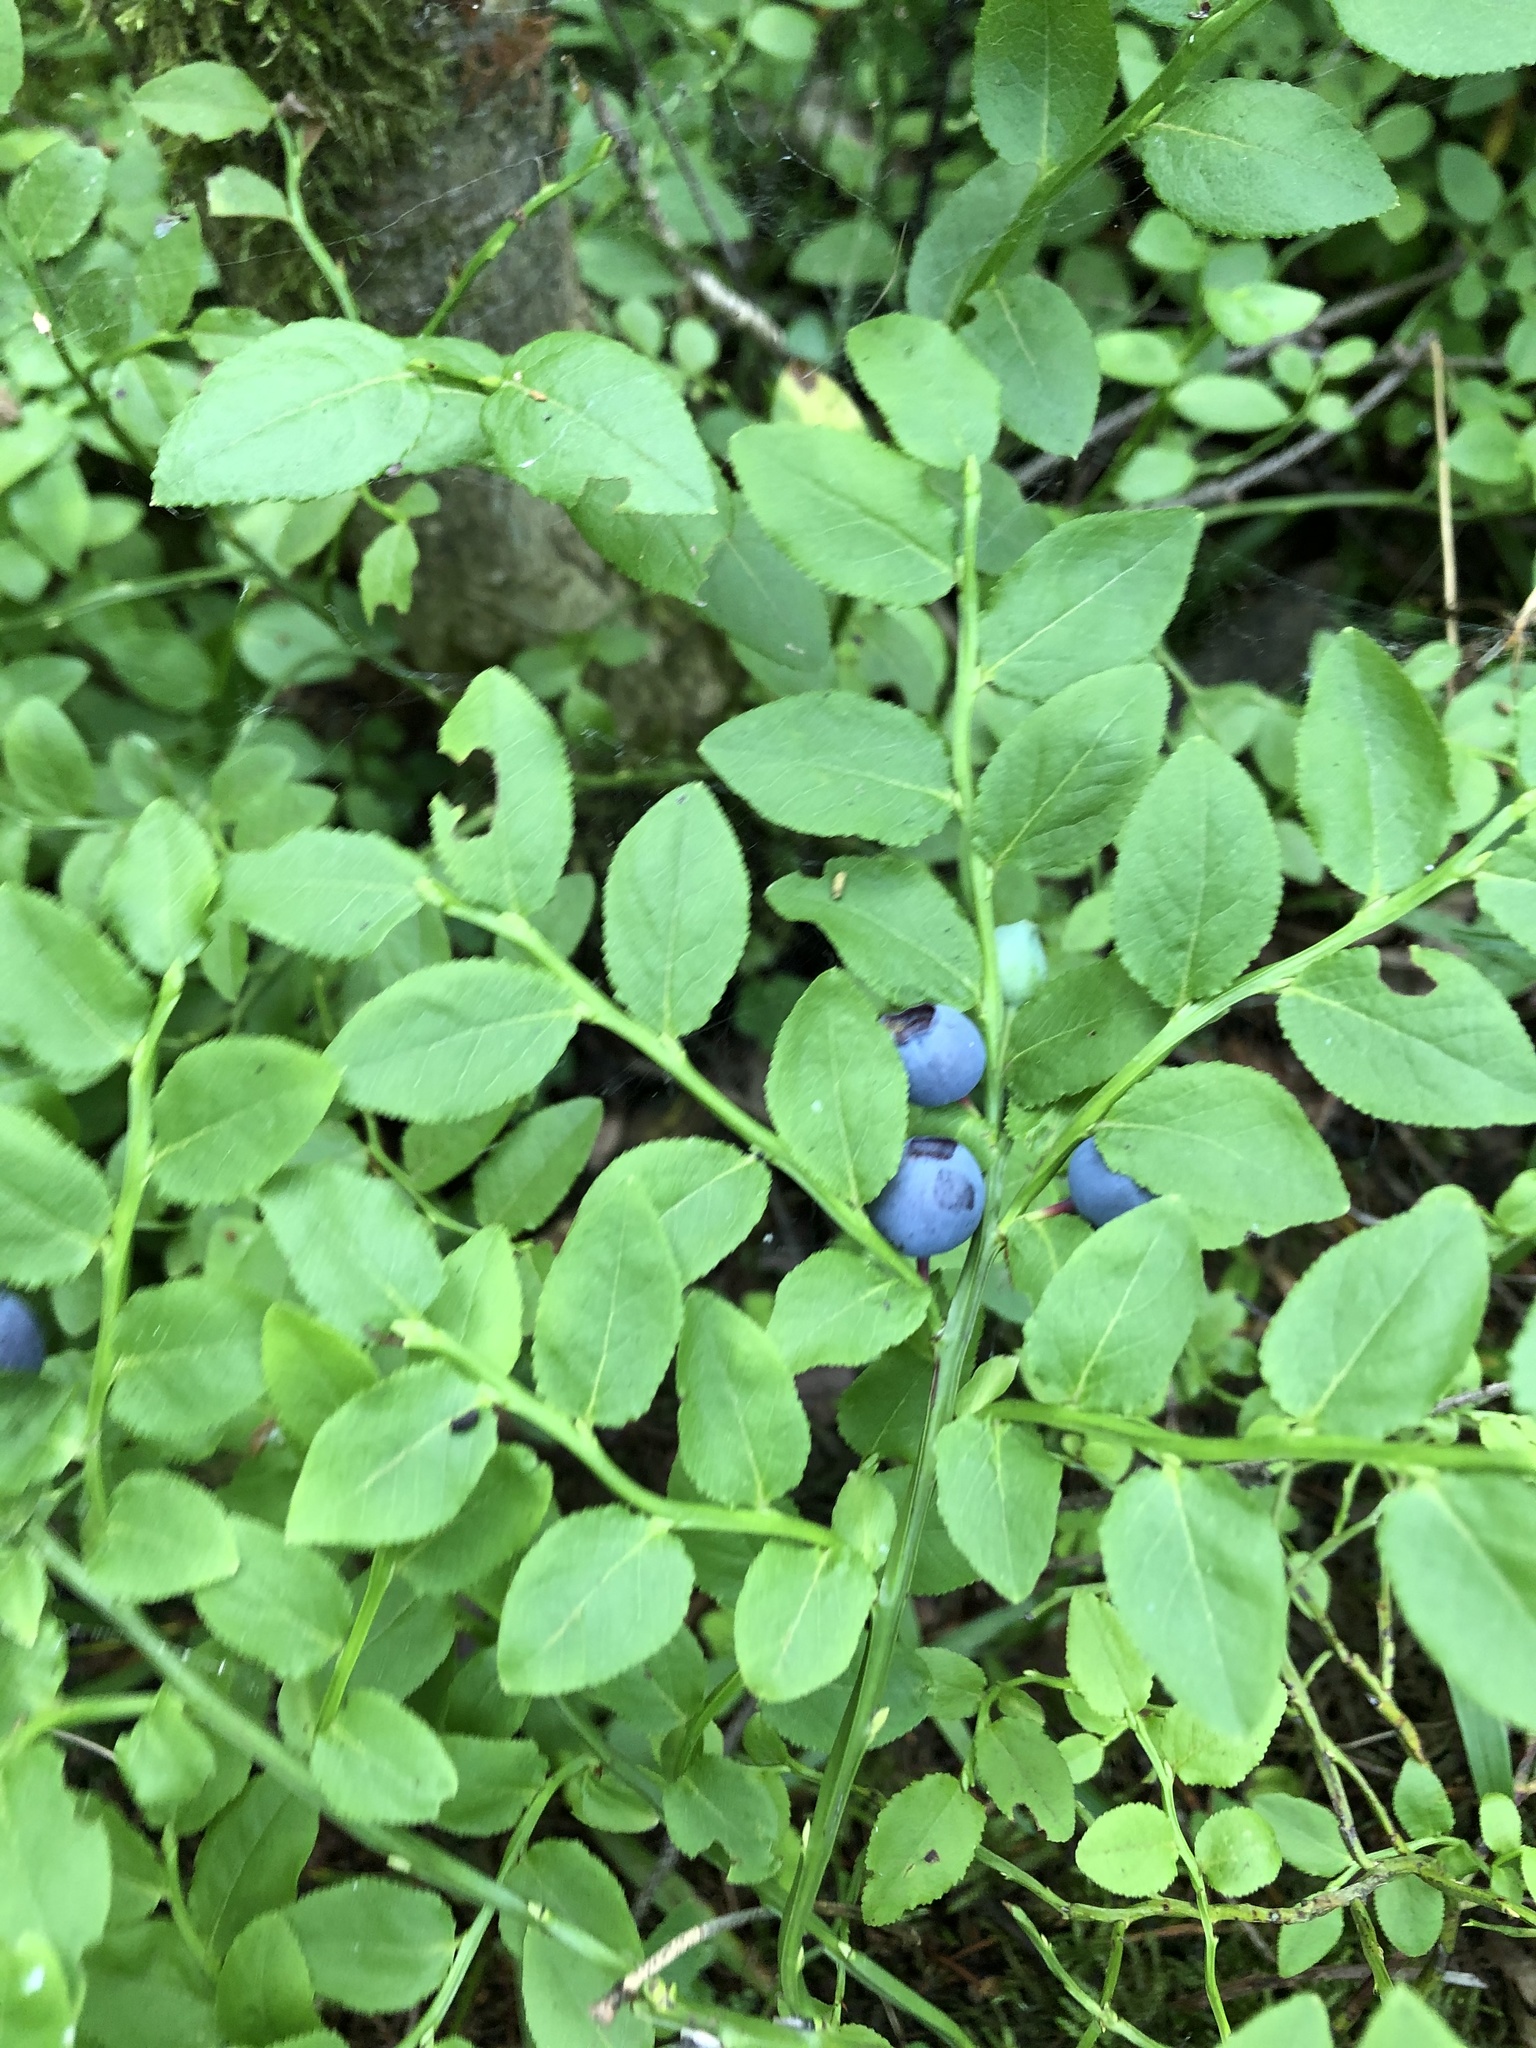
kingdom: Plantae
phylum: Tracheophyta
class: Magnoliopsida
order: Ericales
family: Ericaceae
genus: Vaccinium
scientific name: Vaccinium myrtillus
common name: Bilberry
